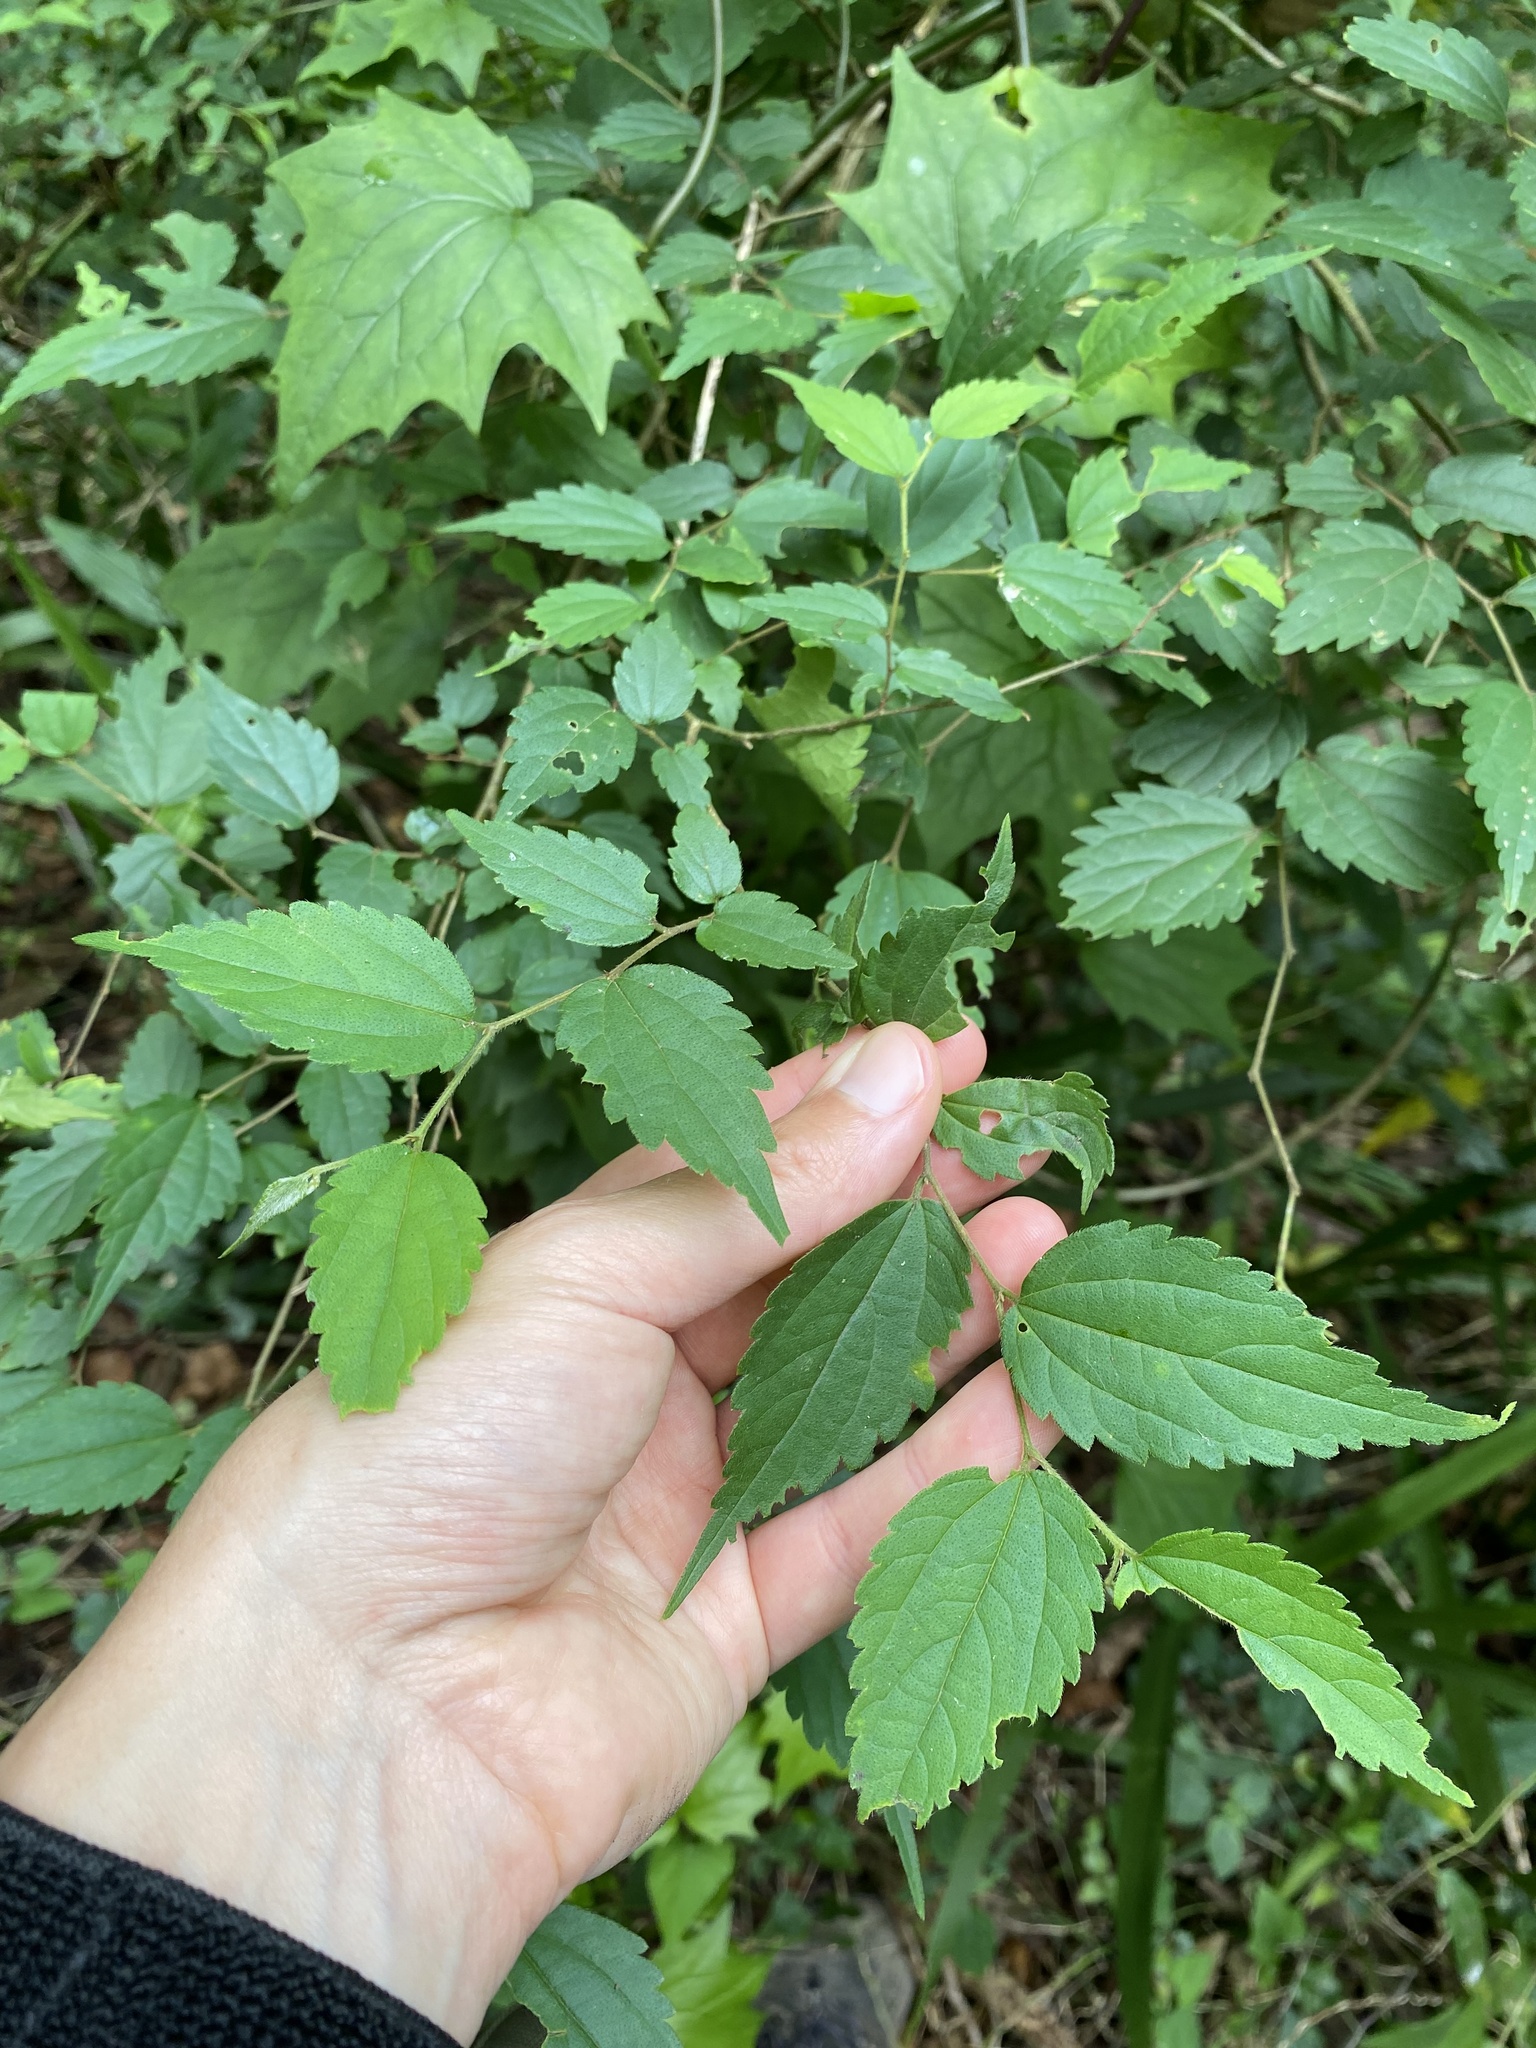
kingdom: Plantae
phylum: Tracheophyta
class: Magnoliopsida
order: Rosales
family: Cannabaceae
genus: Celtis
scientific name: Celtis africana
